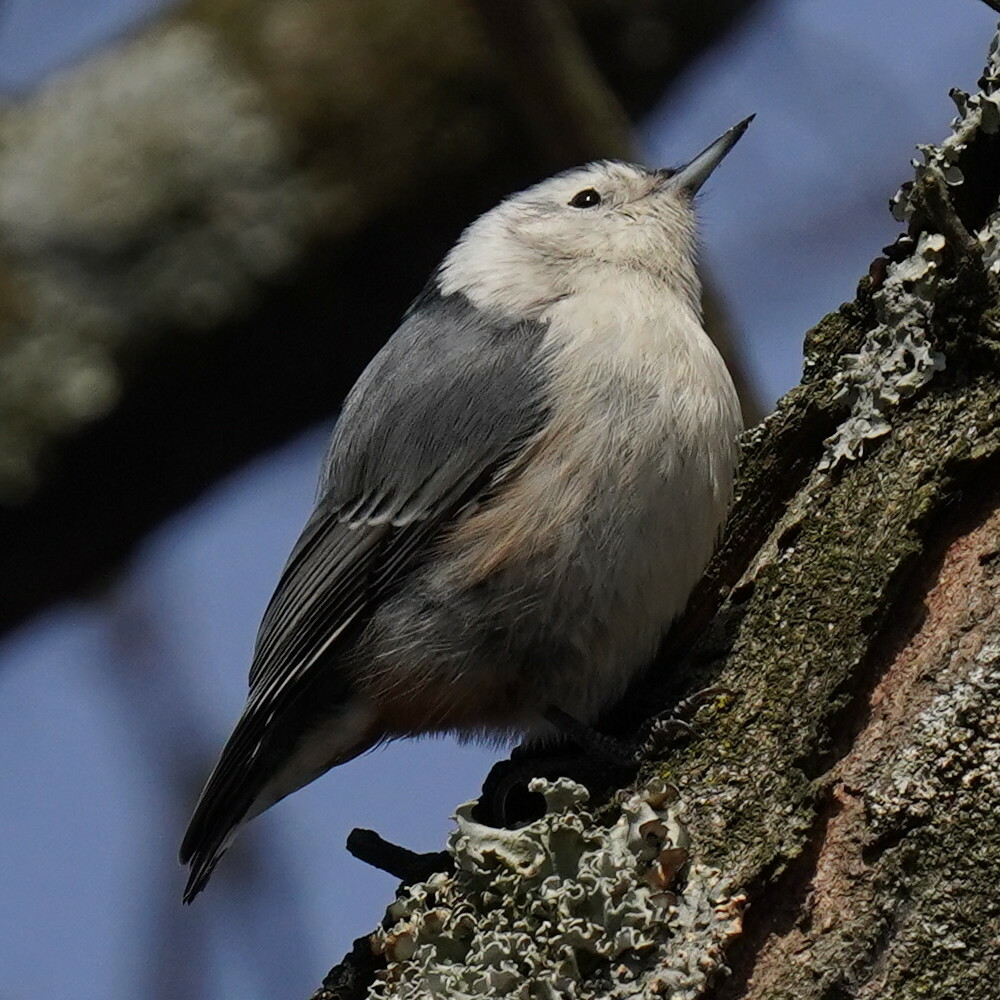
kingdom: Animalia
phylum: Chordata
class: Aves
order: Passeriformes
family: Sittidae
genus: Sitta
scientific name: Sitta carolinensis
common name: White-breasted nuthatch
